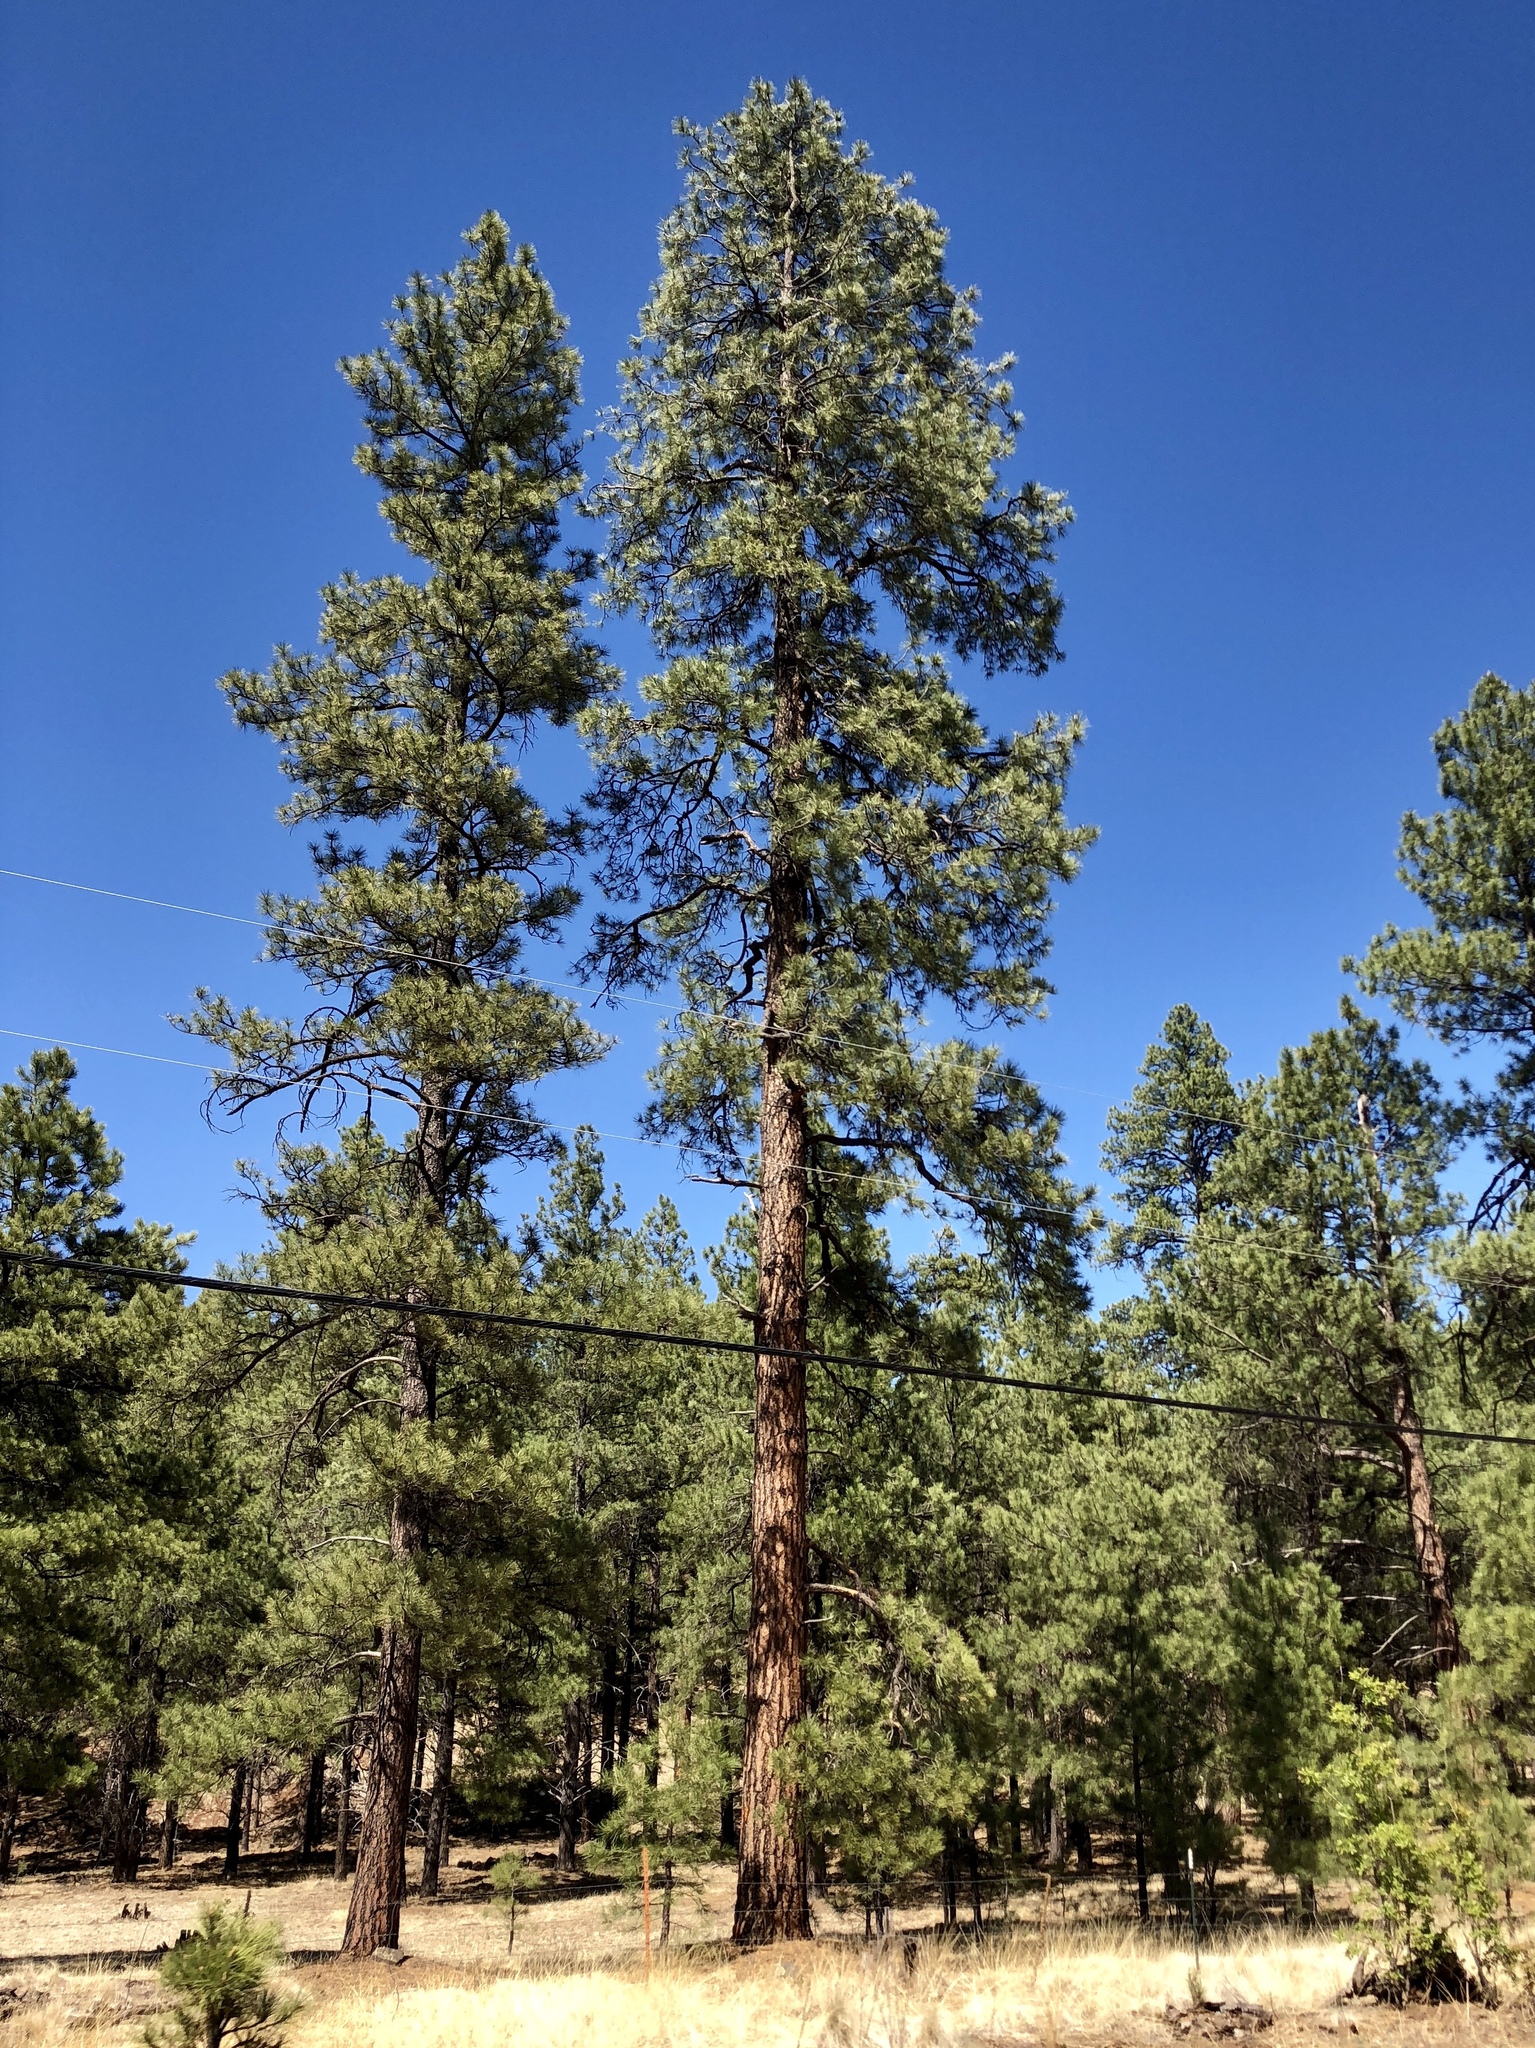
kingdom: Plantae
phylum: Tracheophyta
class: Pinopsida
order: Pinales
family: Pinaceae
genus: Pinus
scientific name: Pinus ponderosa
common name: Western yellow-pine
